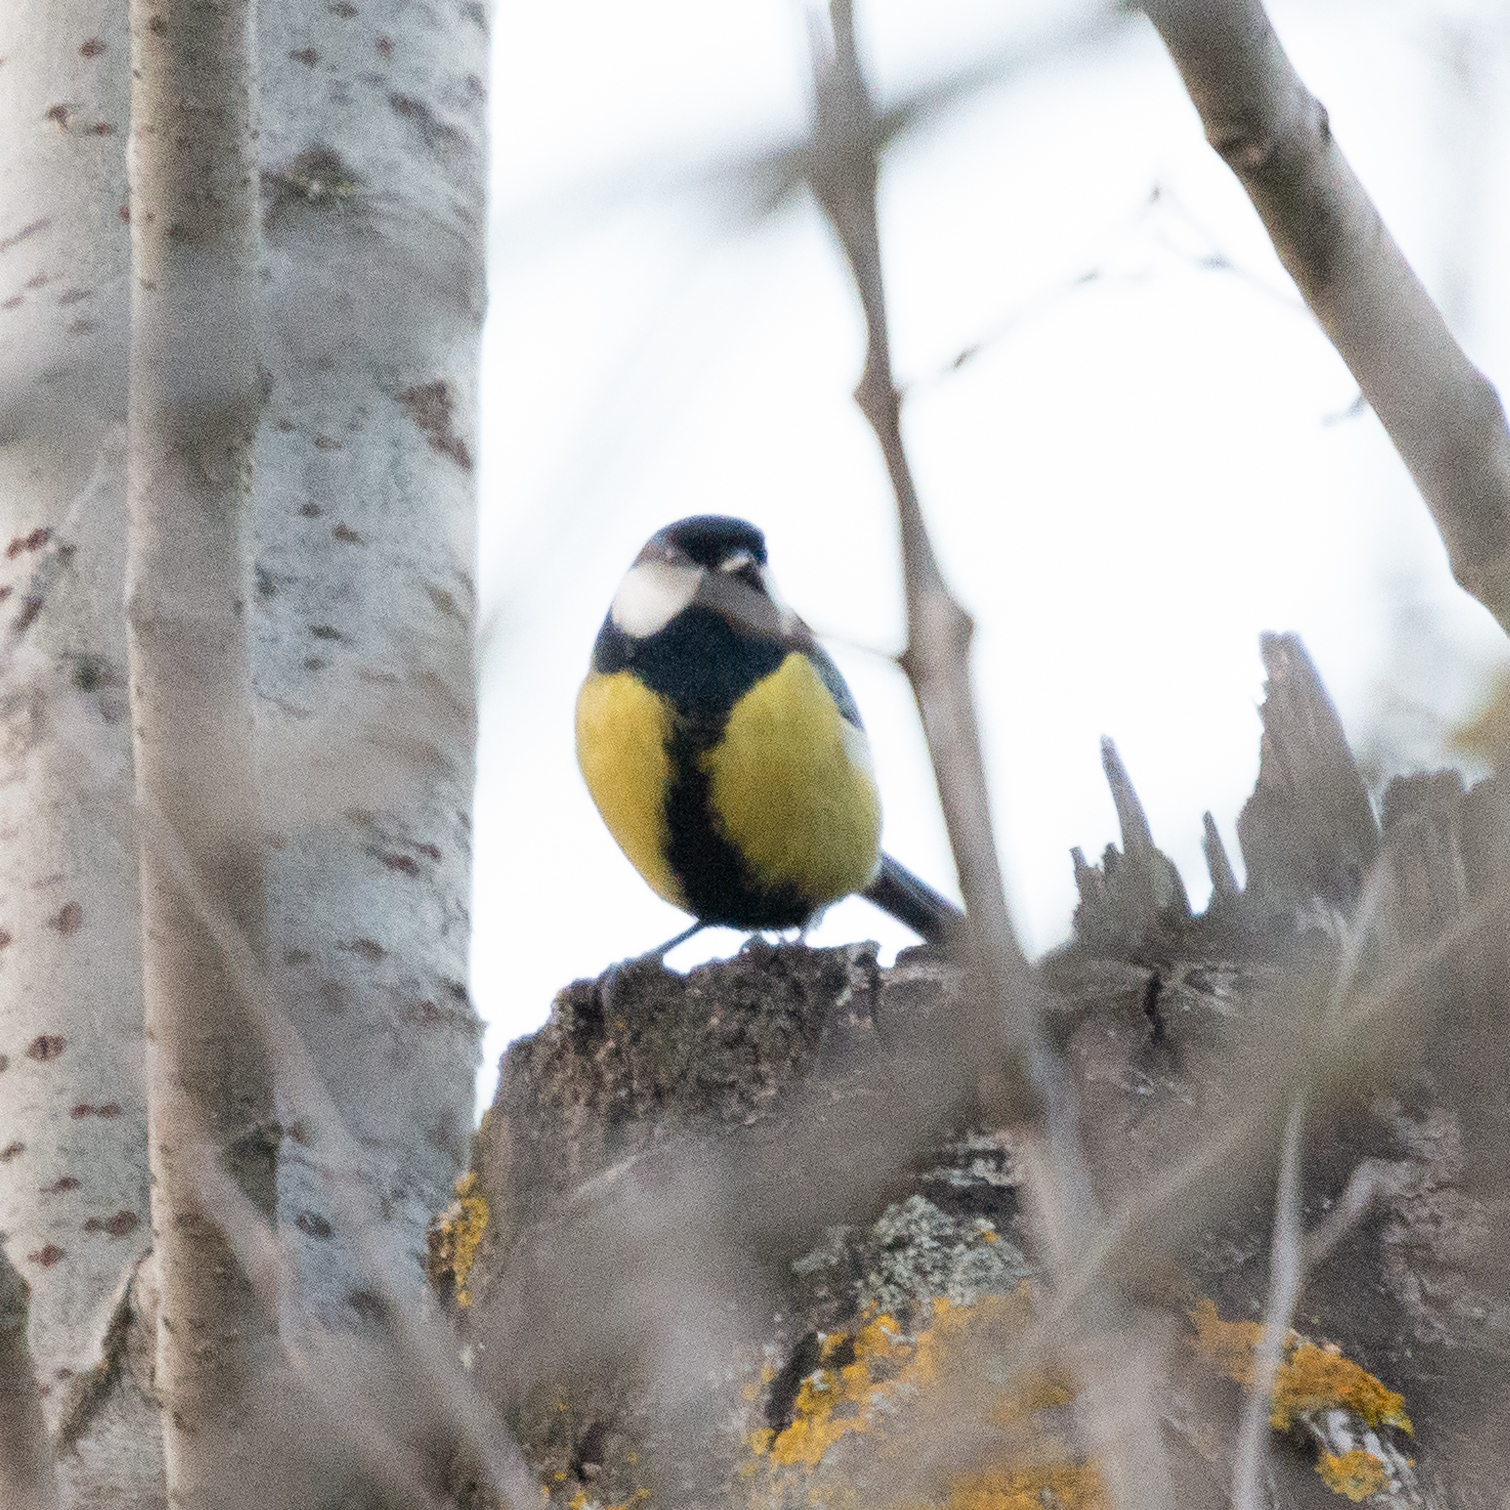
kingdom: Animalia
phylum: Chordata
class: Aves
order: Passeriformes
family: Paridae
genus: Parus
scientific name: Parus major
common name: Great tit
